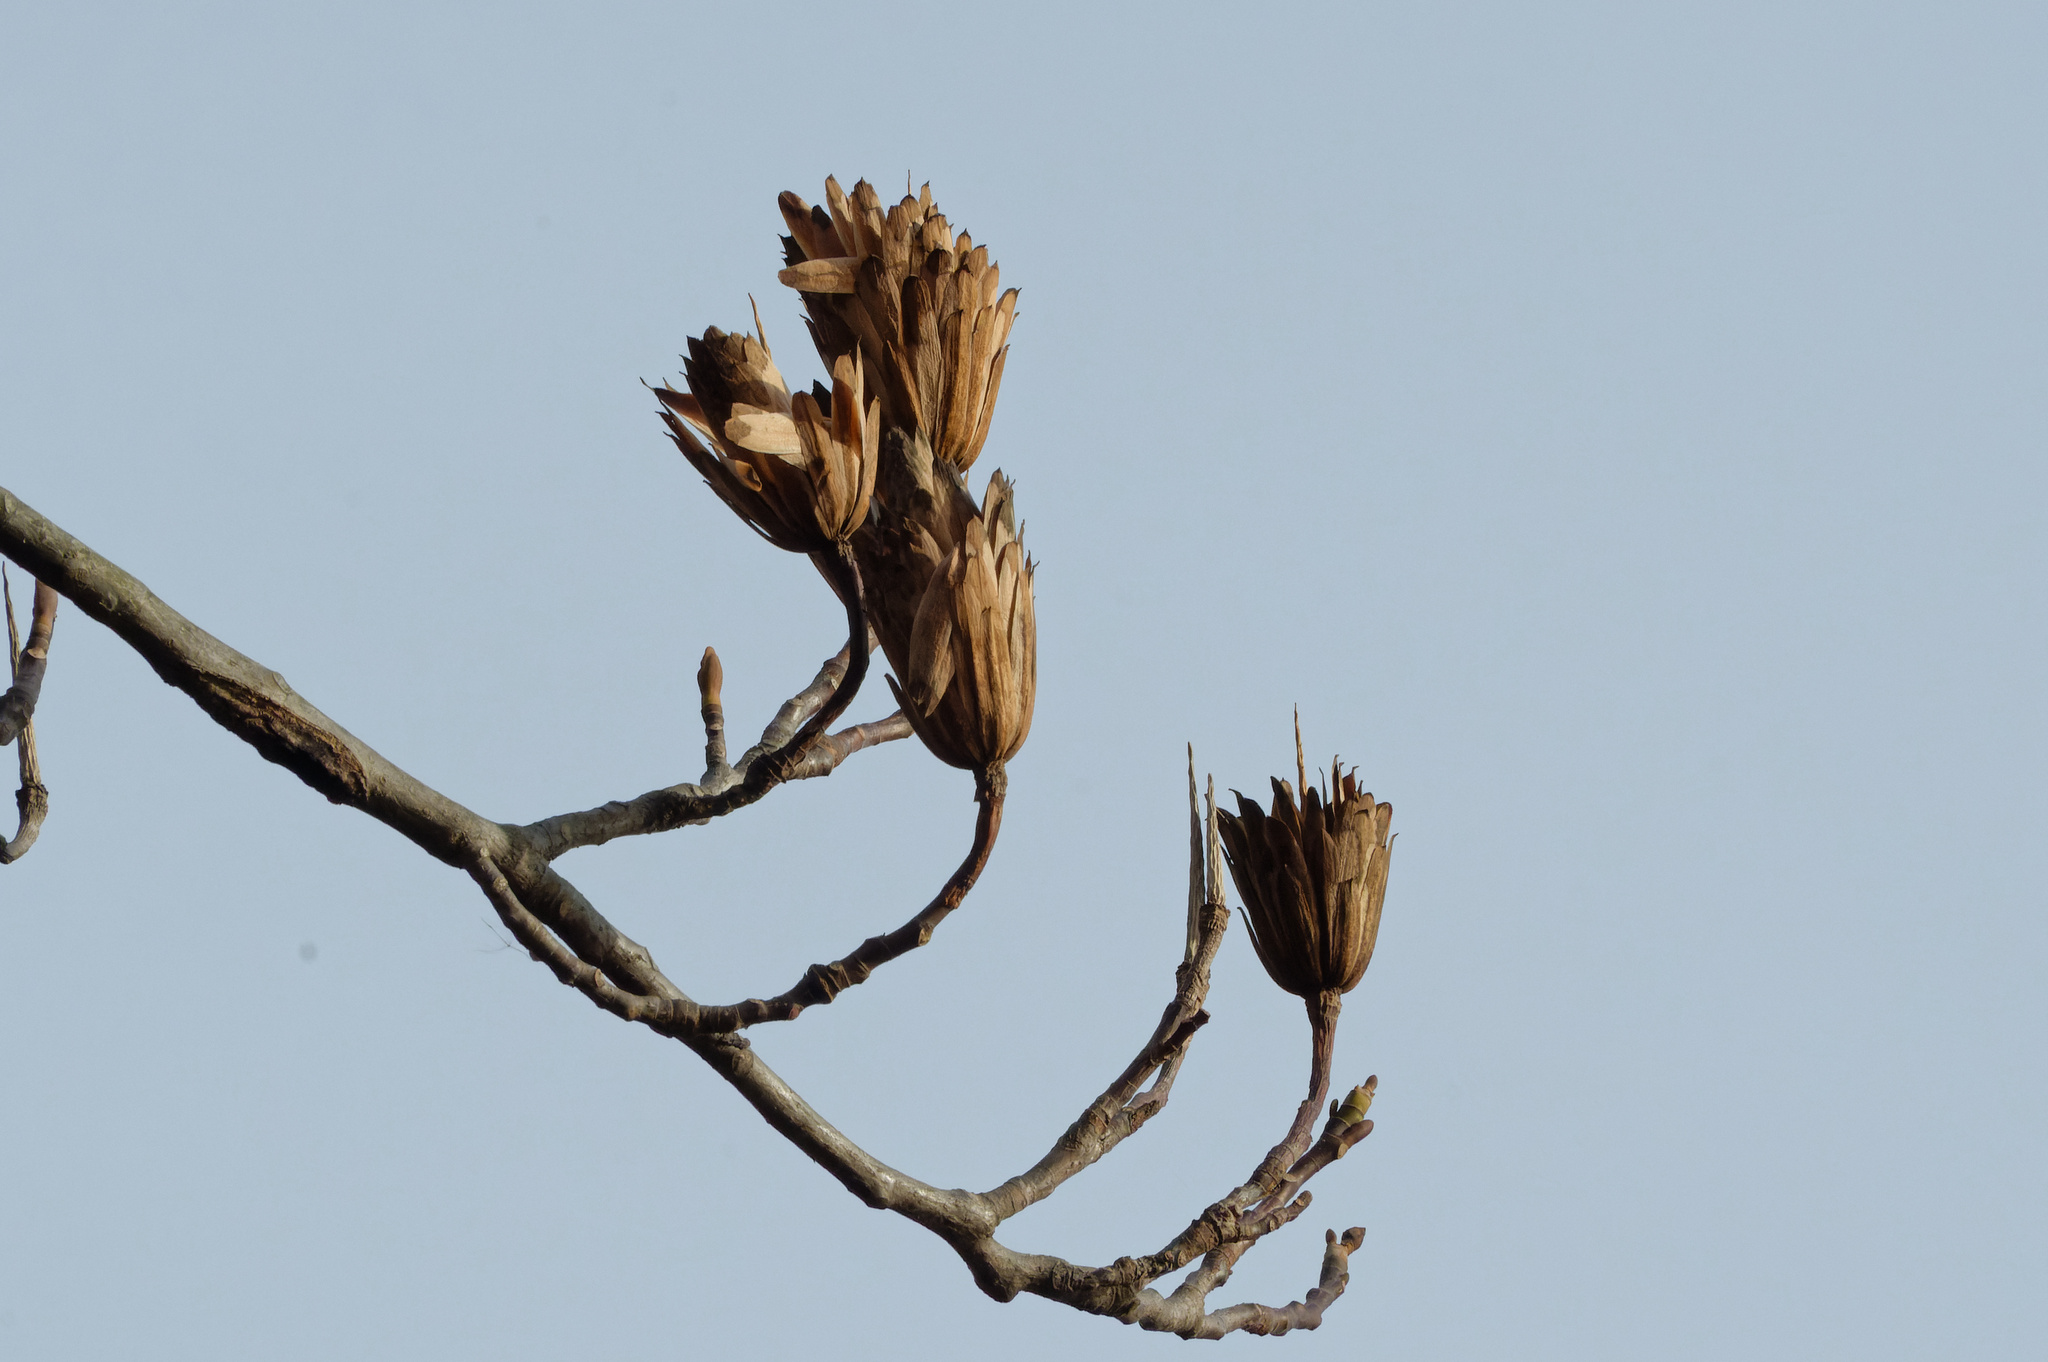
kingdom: Plantae
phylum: Tracheophyta
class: Magnoliopsida
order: Magnoliales
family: Magnoliaceae
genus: Liriodendron
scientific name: Liriodendron tulipifera
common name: Tulip tree
